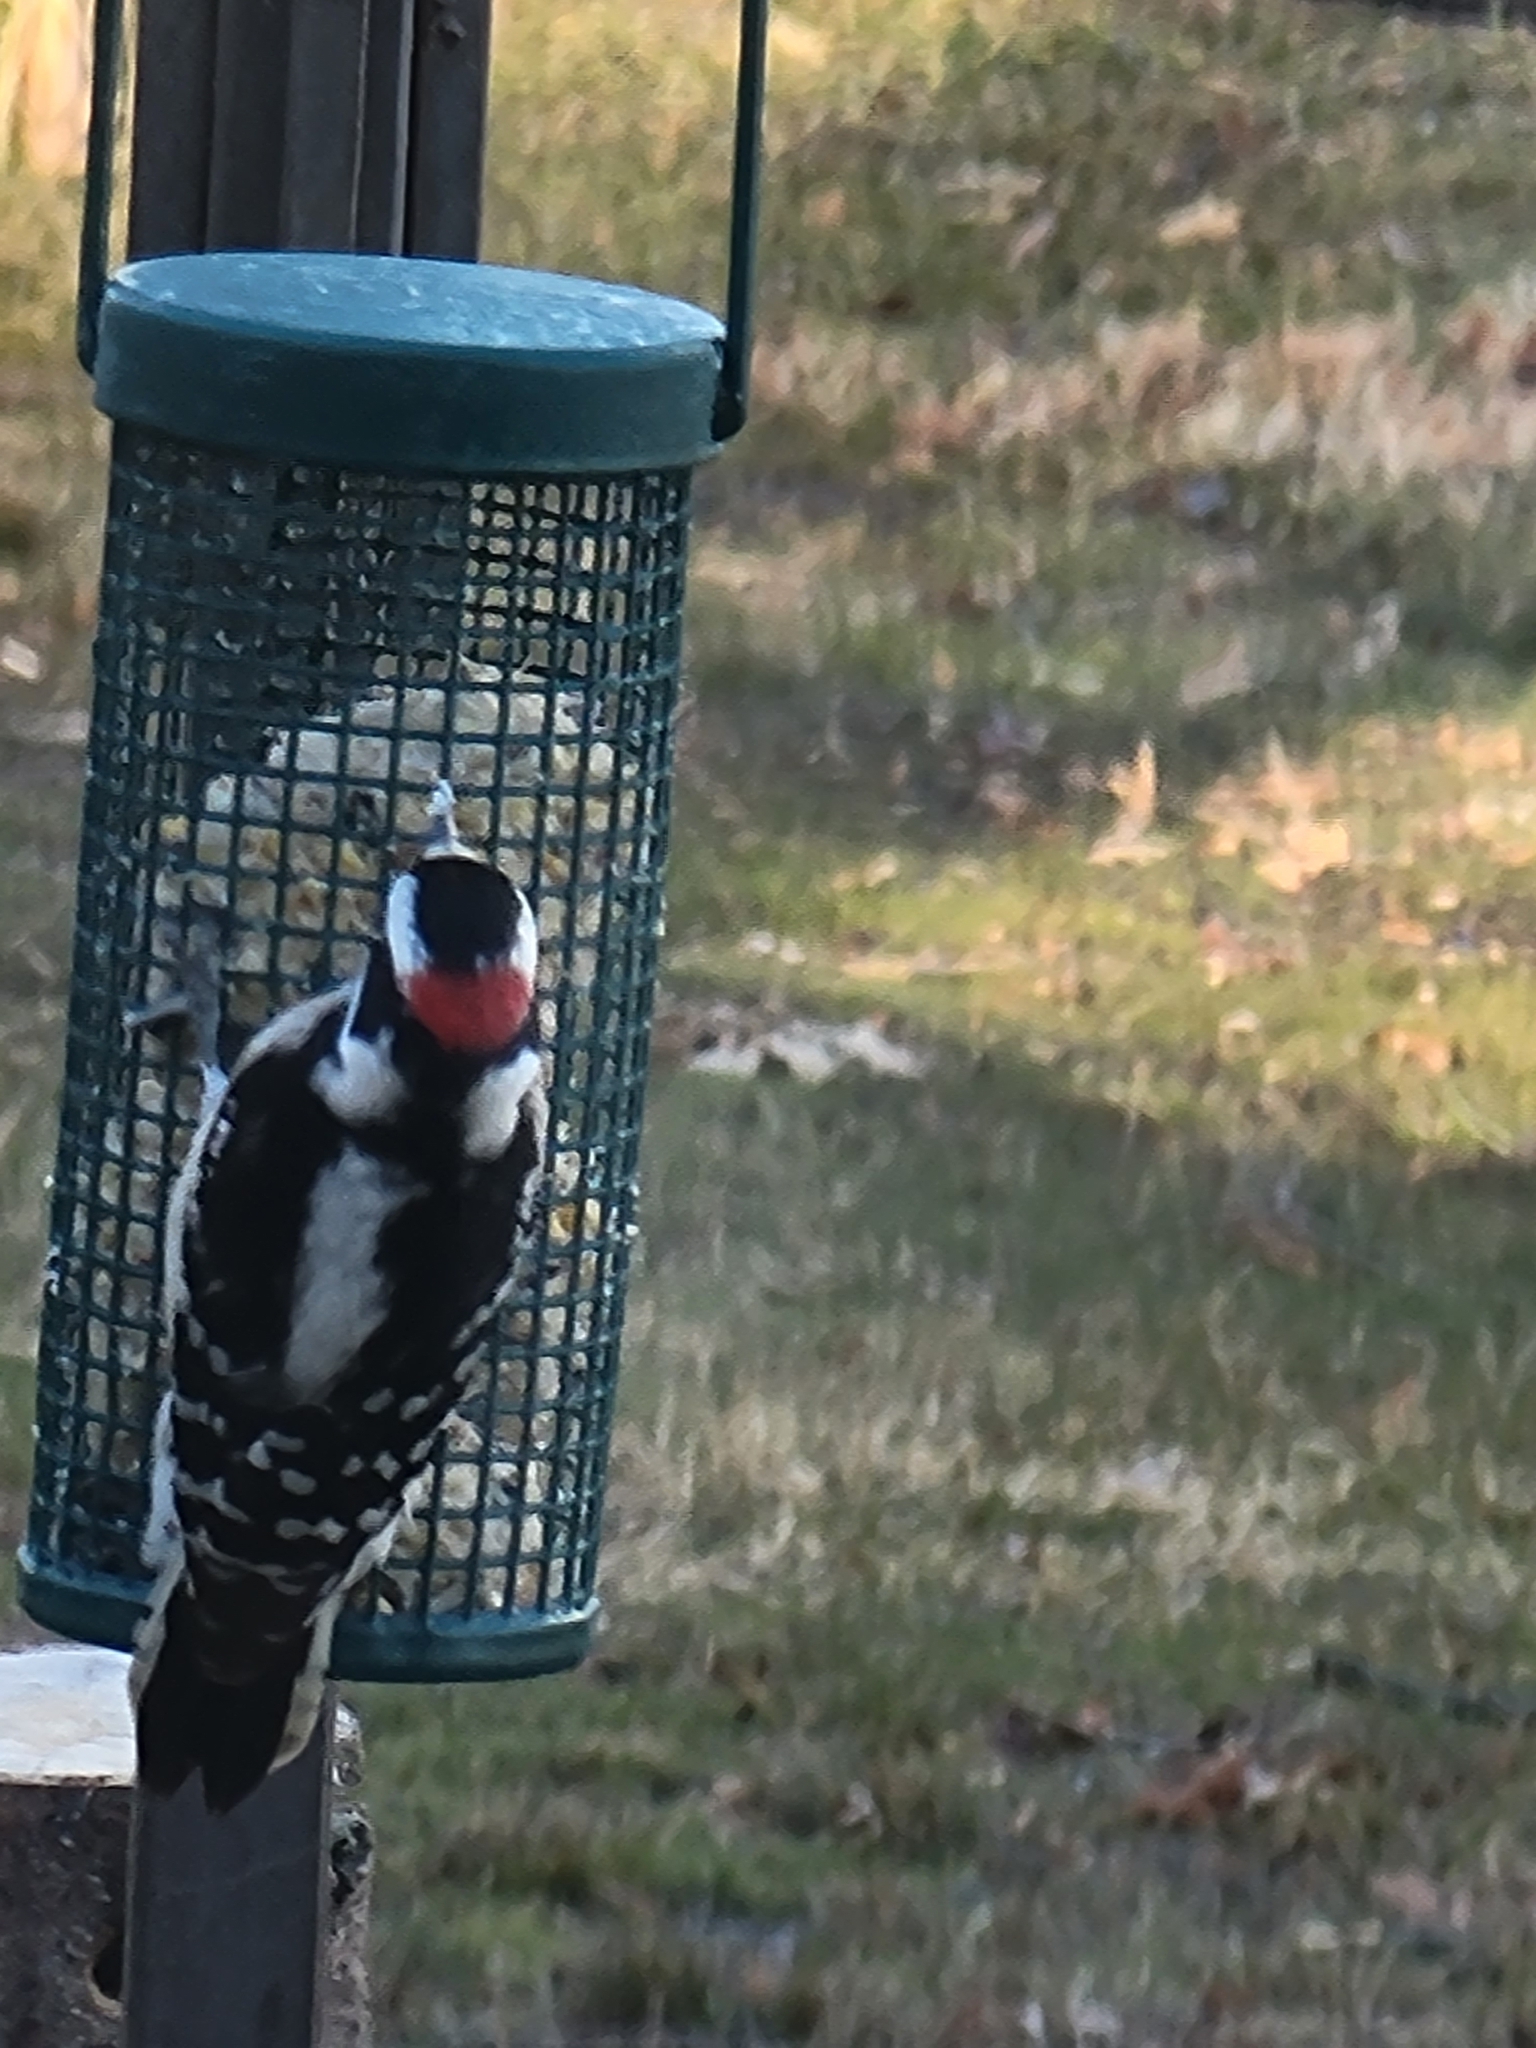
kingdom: Animalia
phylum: Chordata
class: Aves
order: Piciformes
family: Picidae
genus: Dryobates
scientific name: Dryobates pubescens
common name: Downy woodpecker
